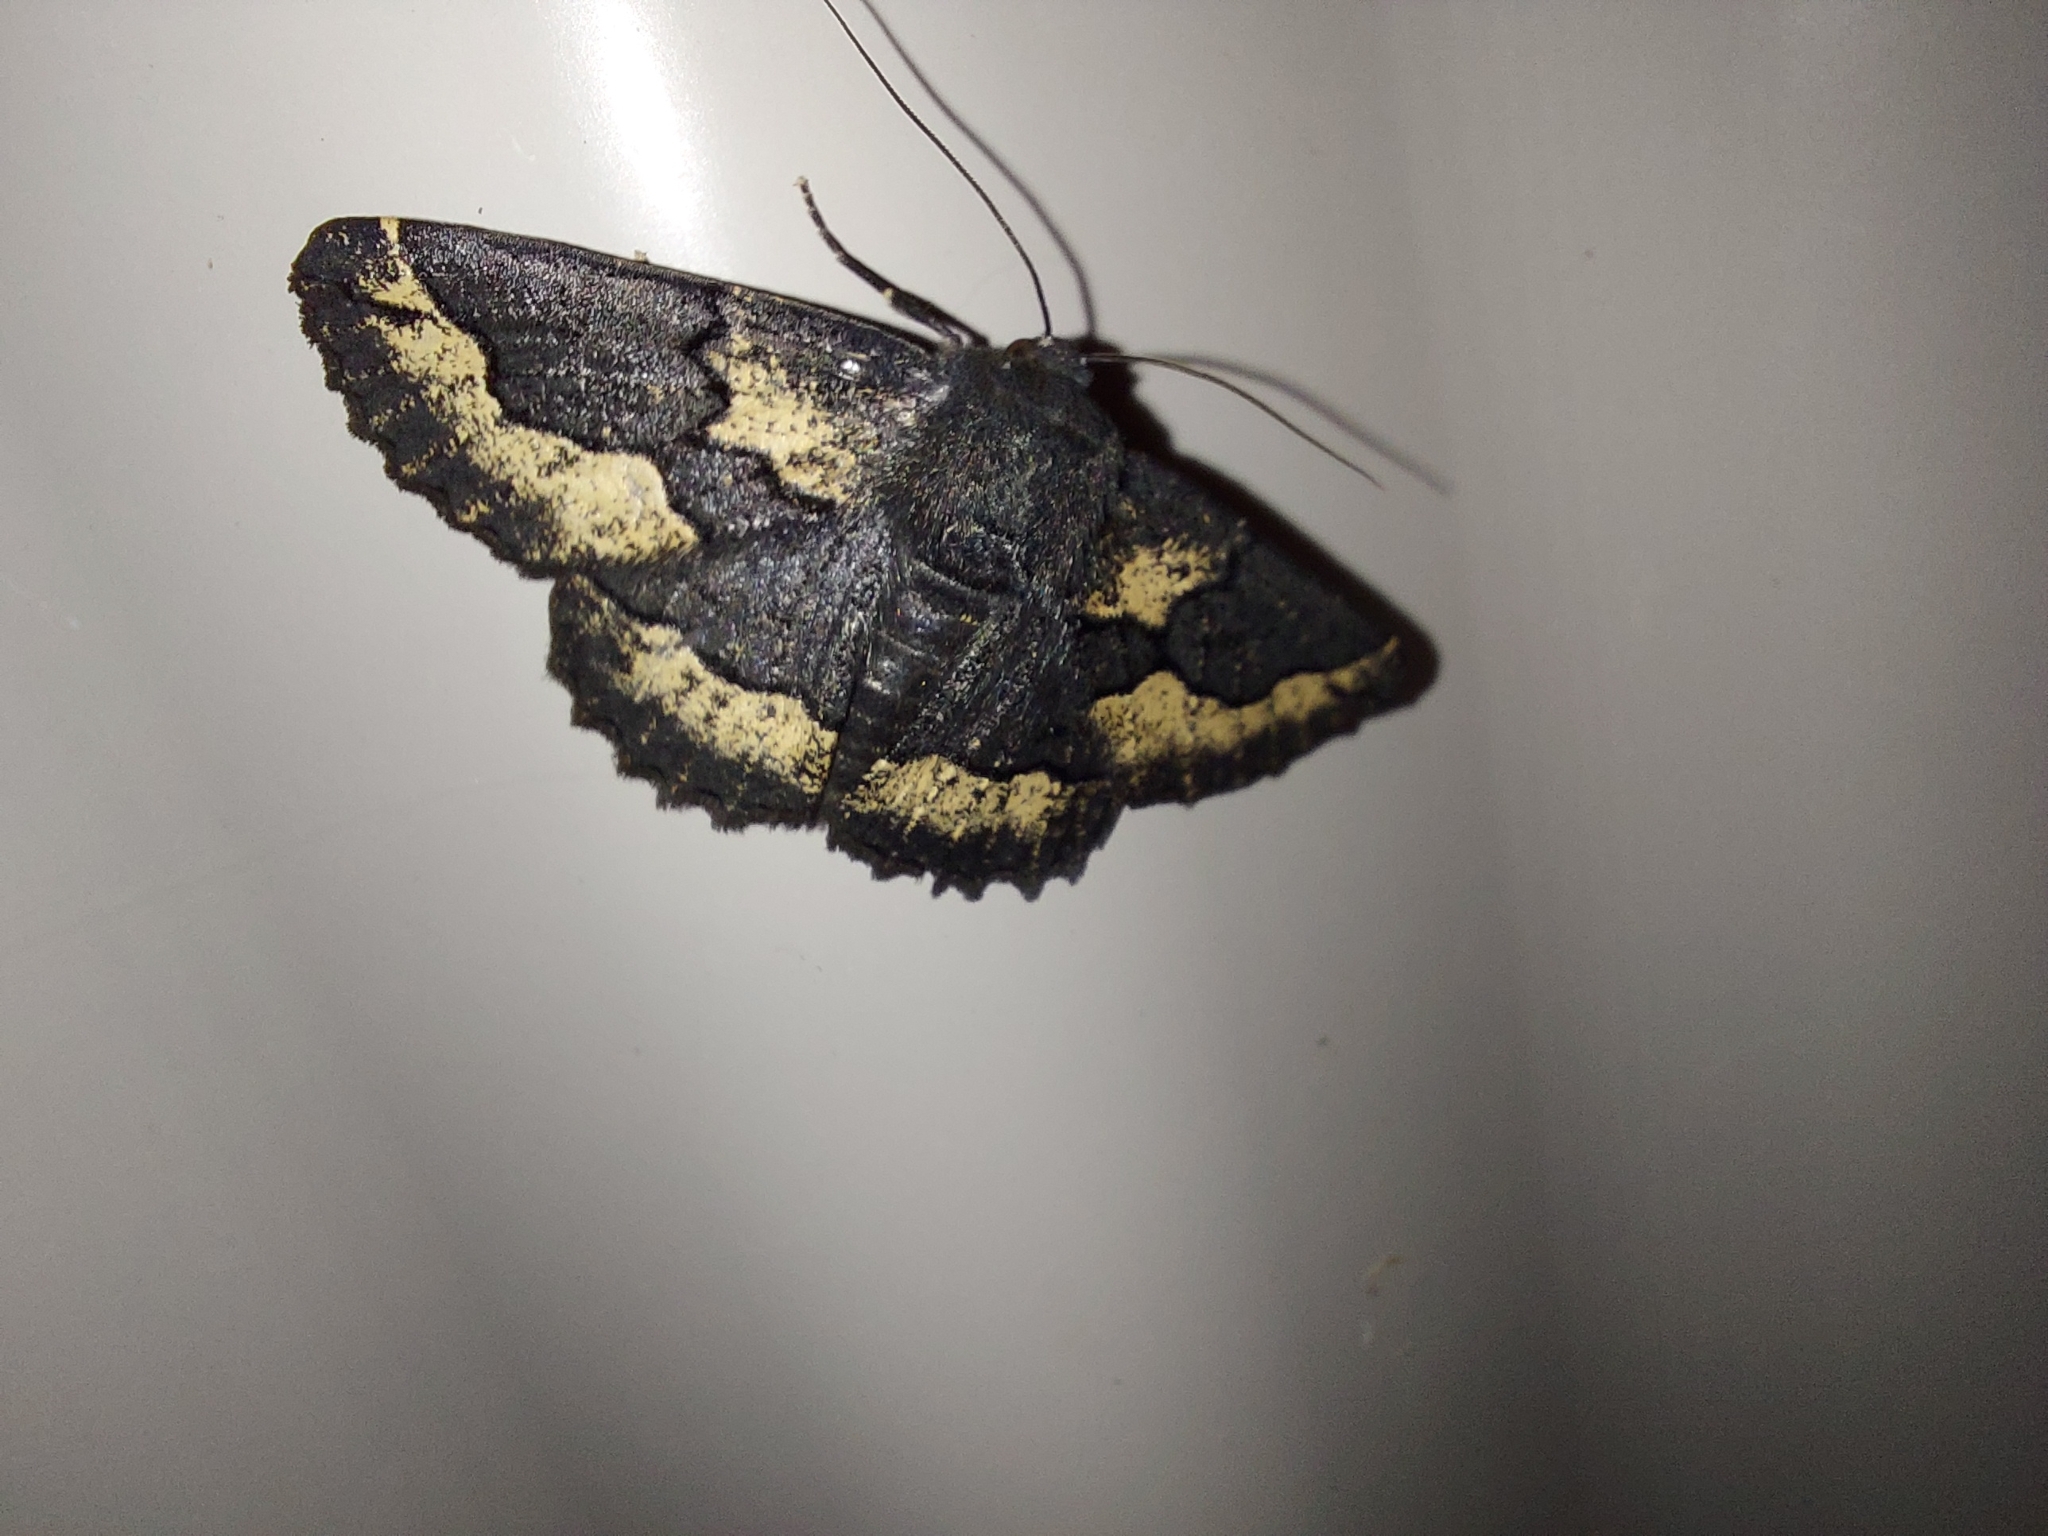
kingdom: Animalia
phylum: Arthropoda
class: Insecta
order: Lepidoptera
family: Geometridae
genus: Melanodes
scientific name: Melanodes anthracitaria
